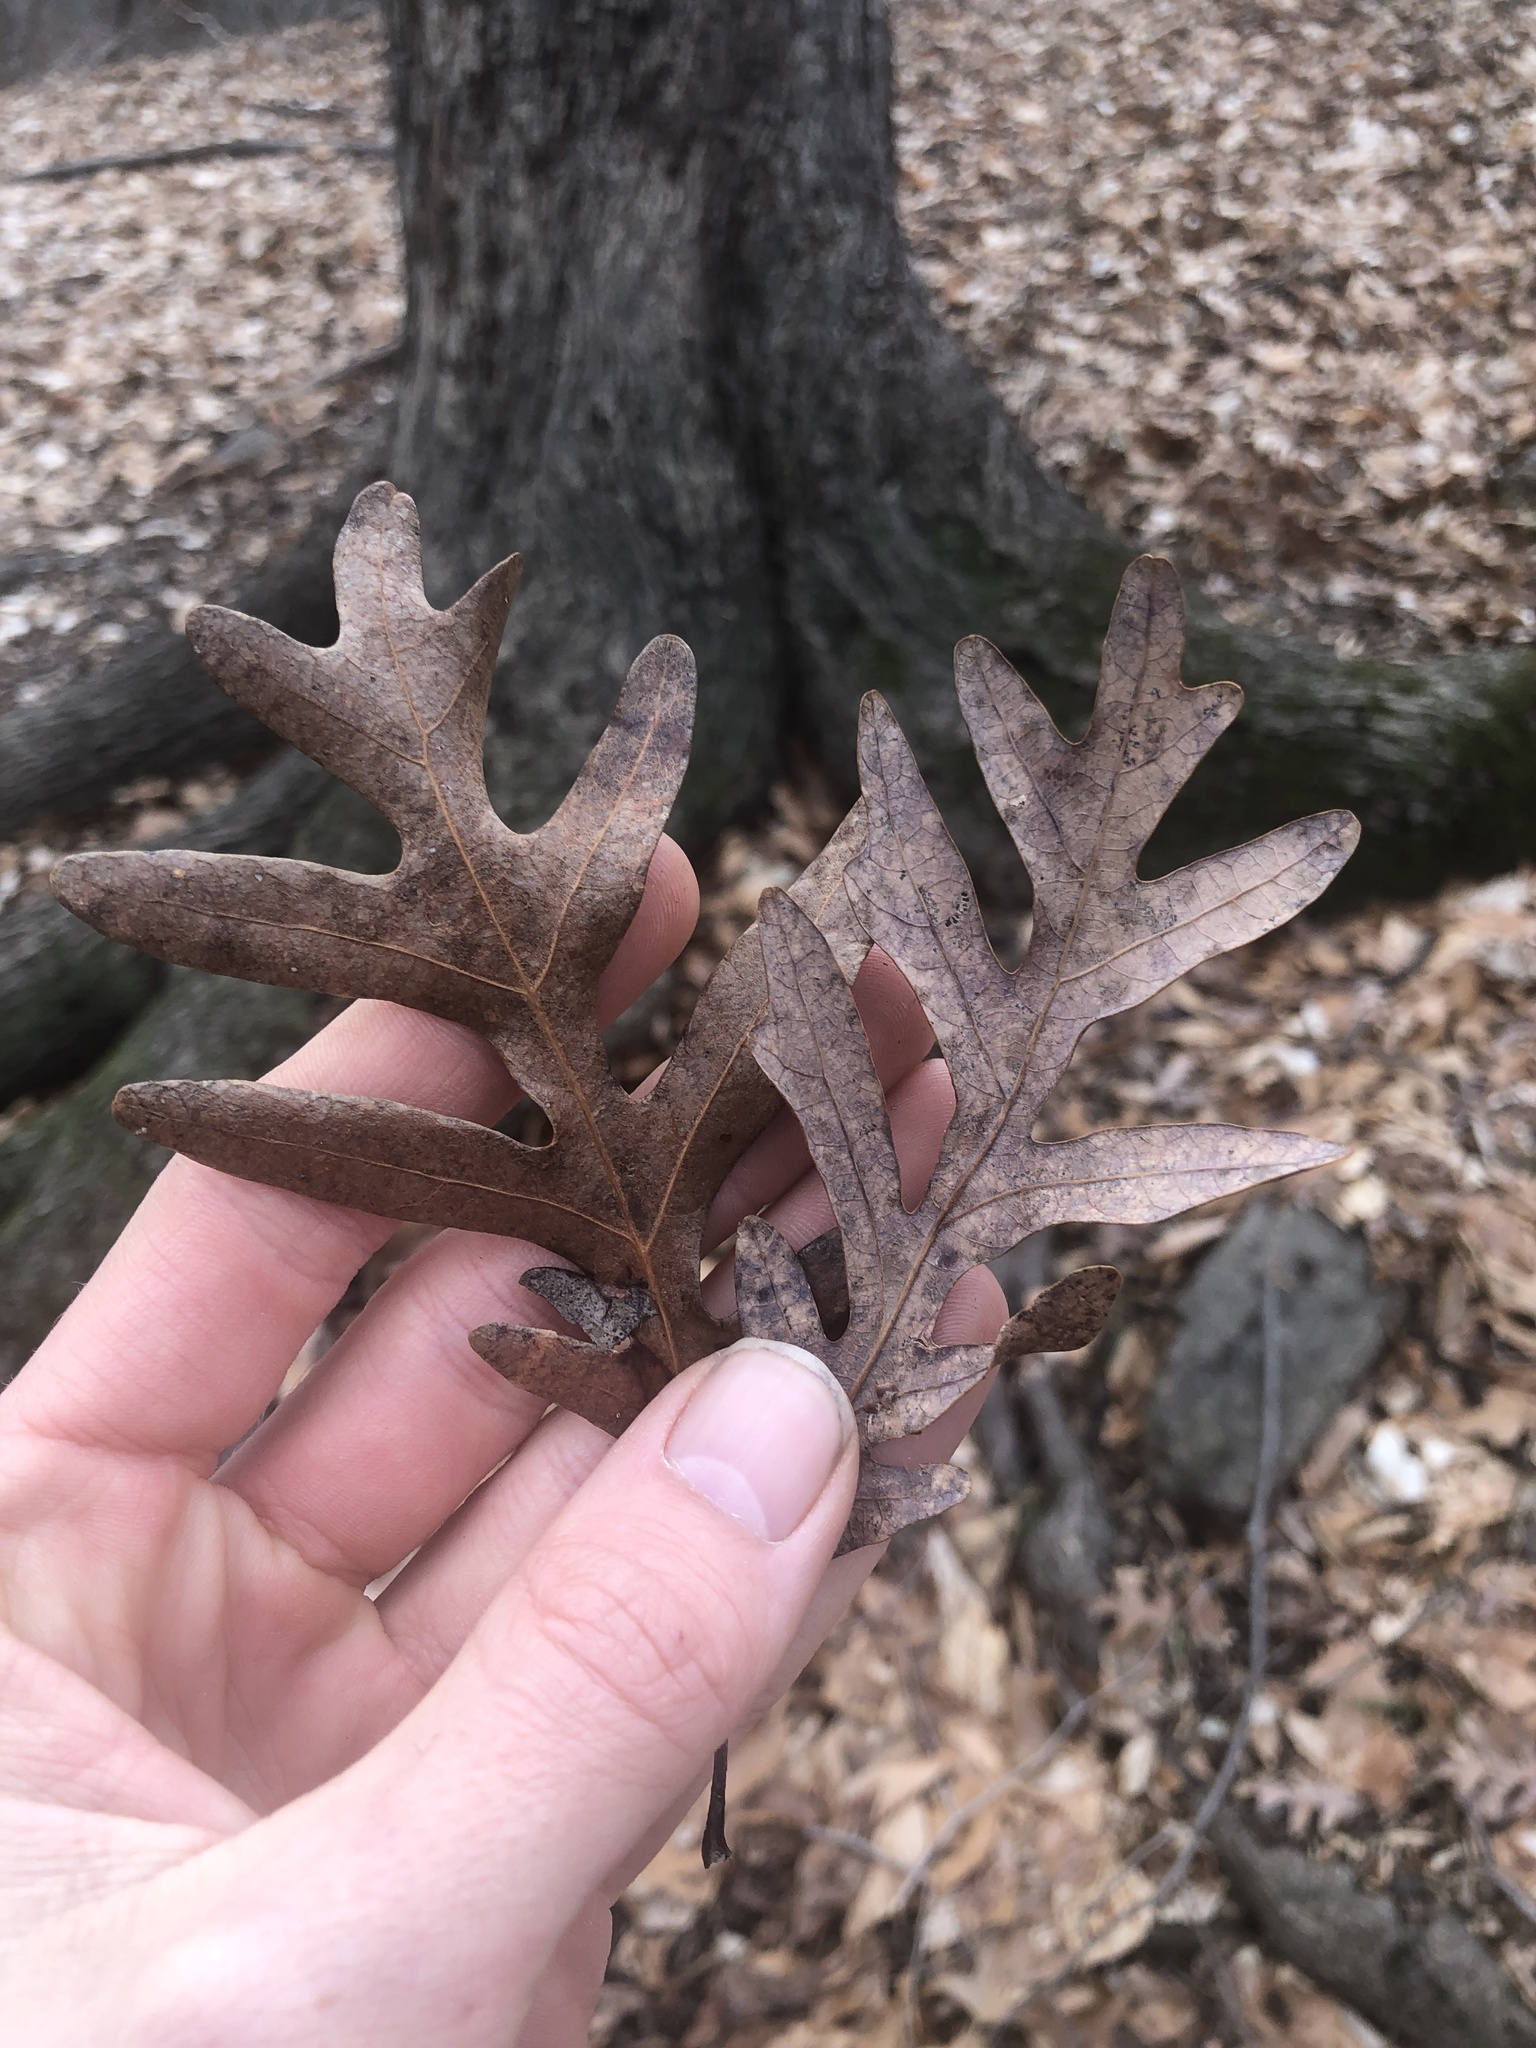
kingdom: Plantae
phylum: Tracheophyta
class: Magnoliopsida
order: Fagales
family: Fagaceae
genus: Quercus
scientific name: Quercus alba
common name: White oak
